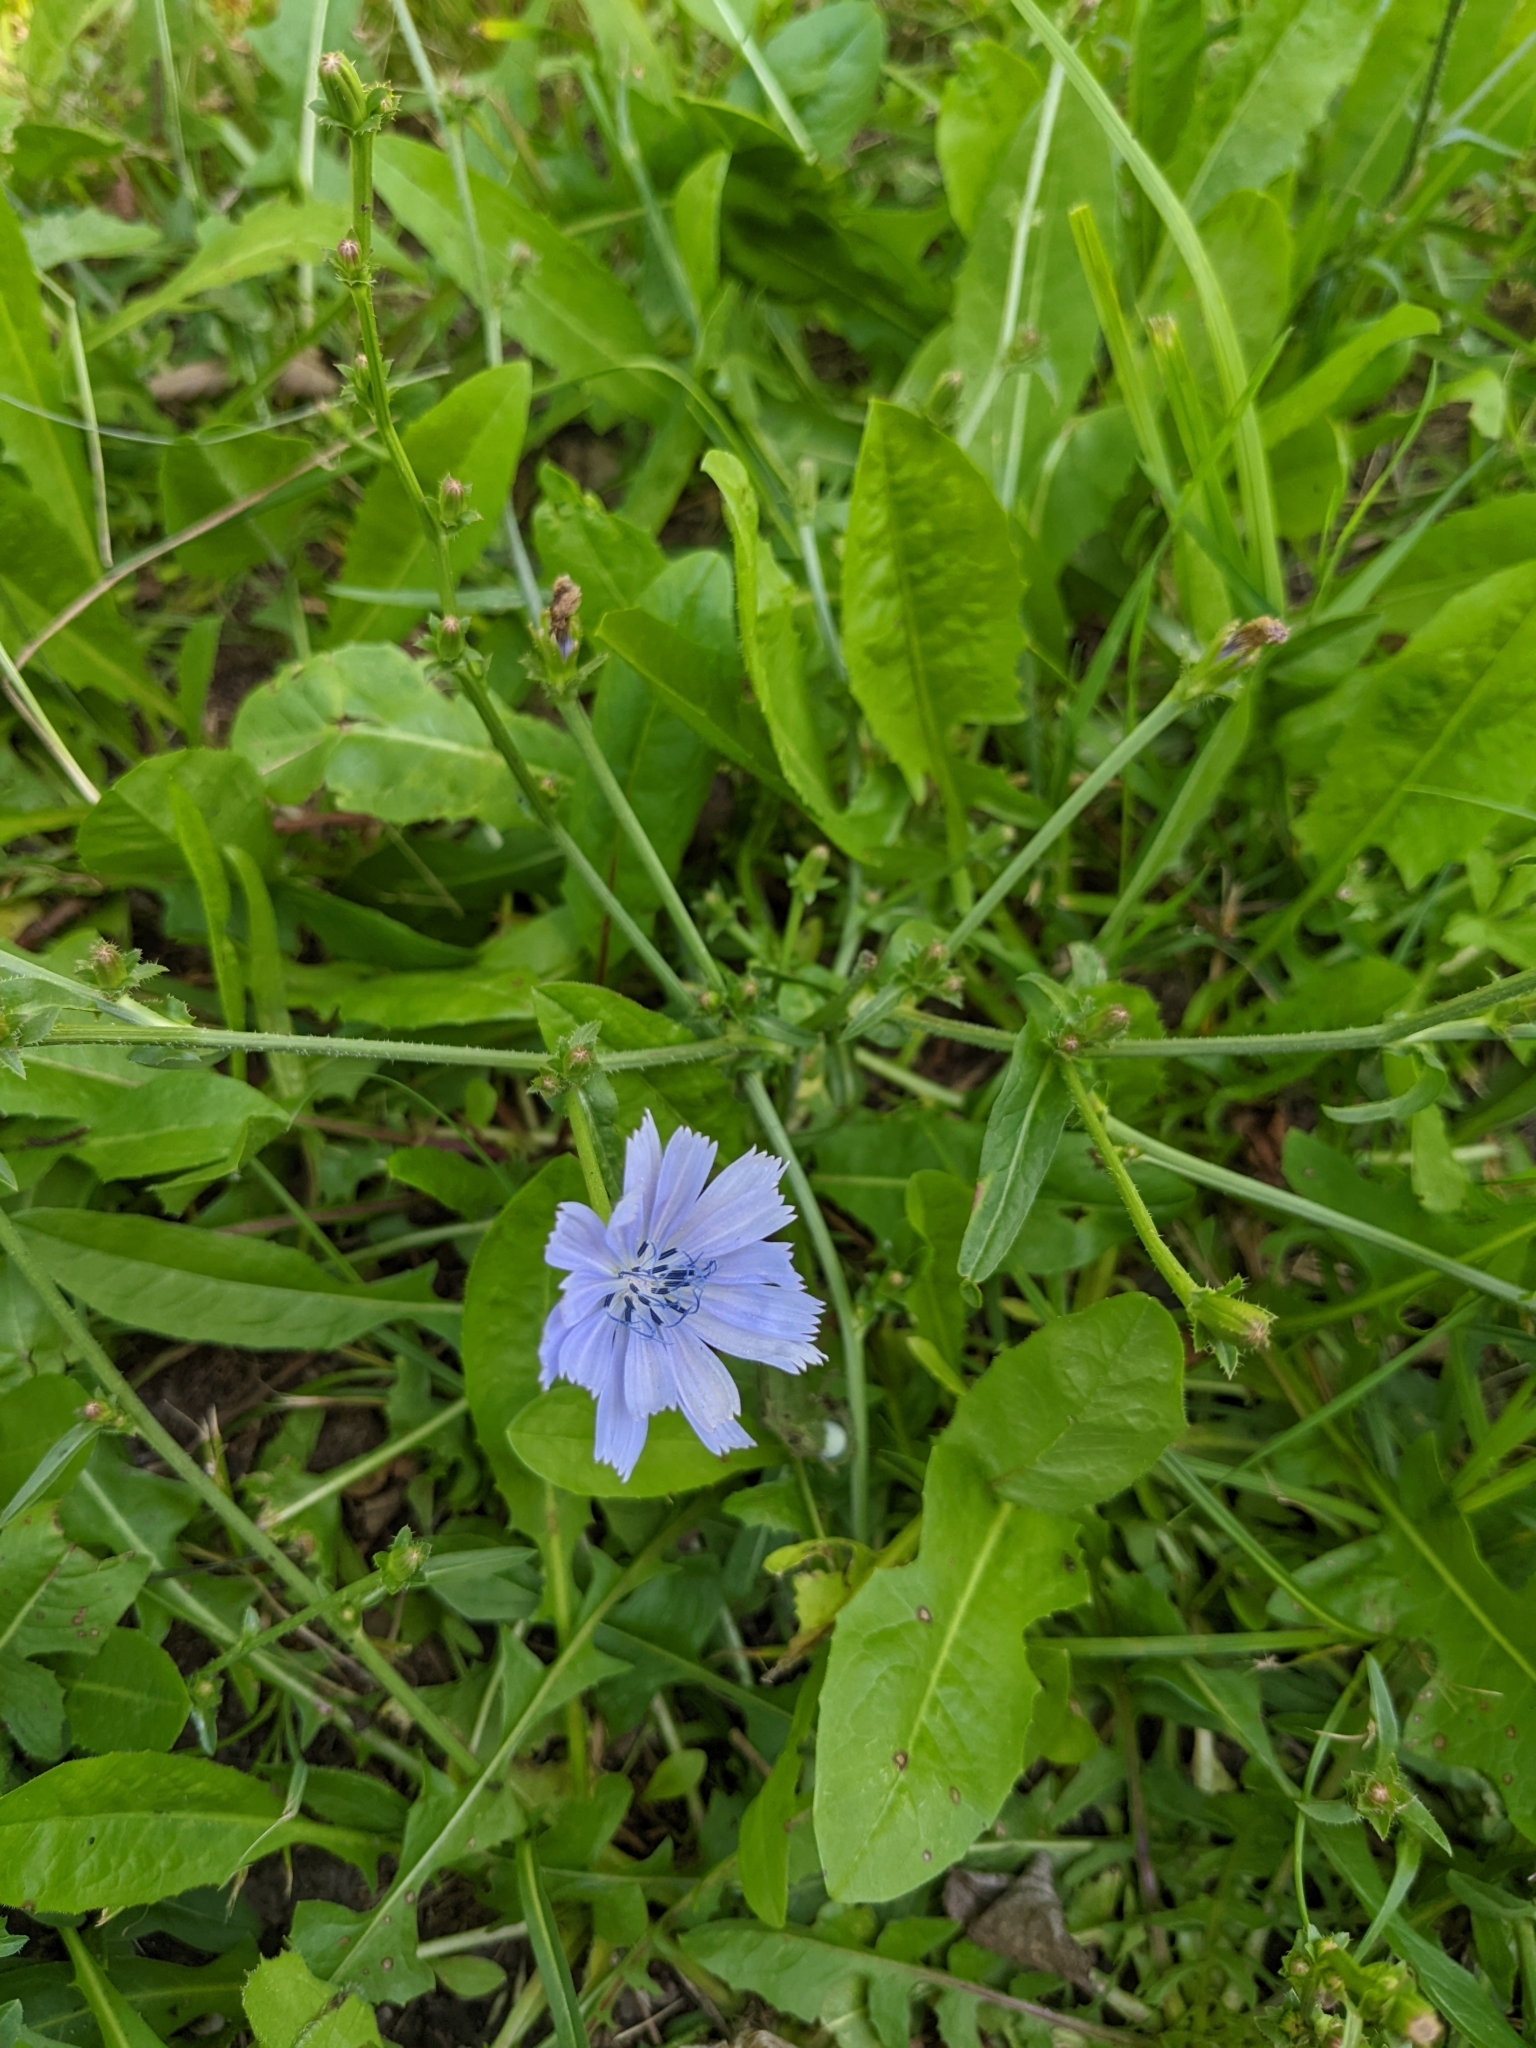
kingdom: Plantae
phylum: Tracheophyta
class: Magnoliopsida
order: Asterales
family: Asteraceae
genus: Cichorium
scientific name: Cichorium intybus
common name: Chicory
